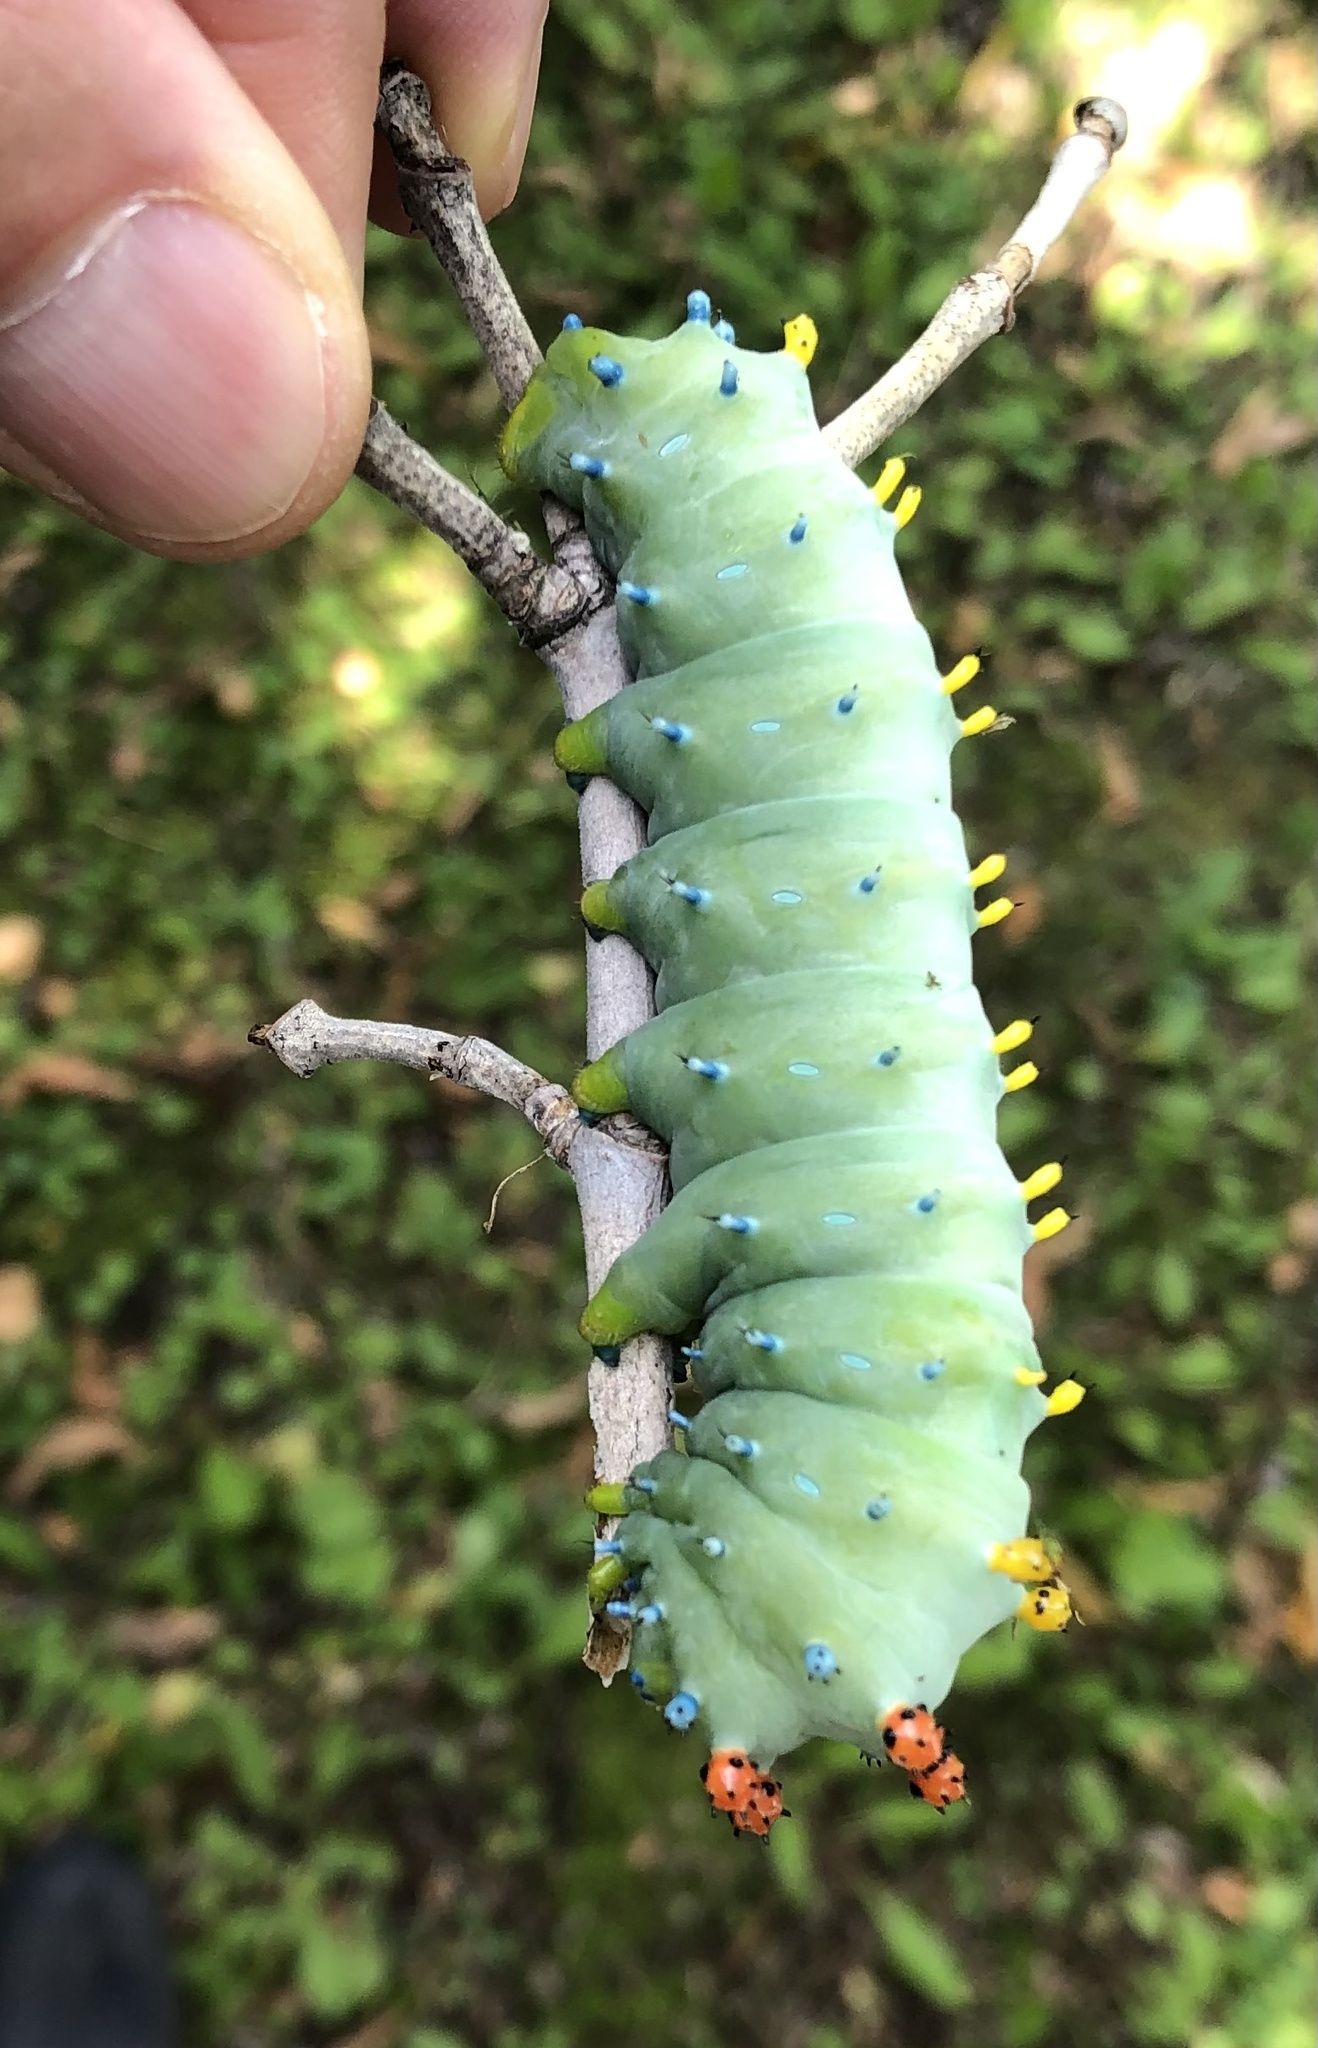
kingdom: Animalia
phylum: Arthropoda
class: Insecta
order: Lepidoptera
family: Saturniidae
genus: Hyalophora
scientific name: Hyalophora cecropia
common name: Cecropia silkmoth
